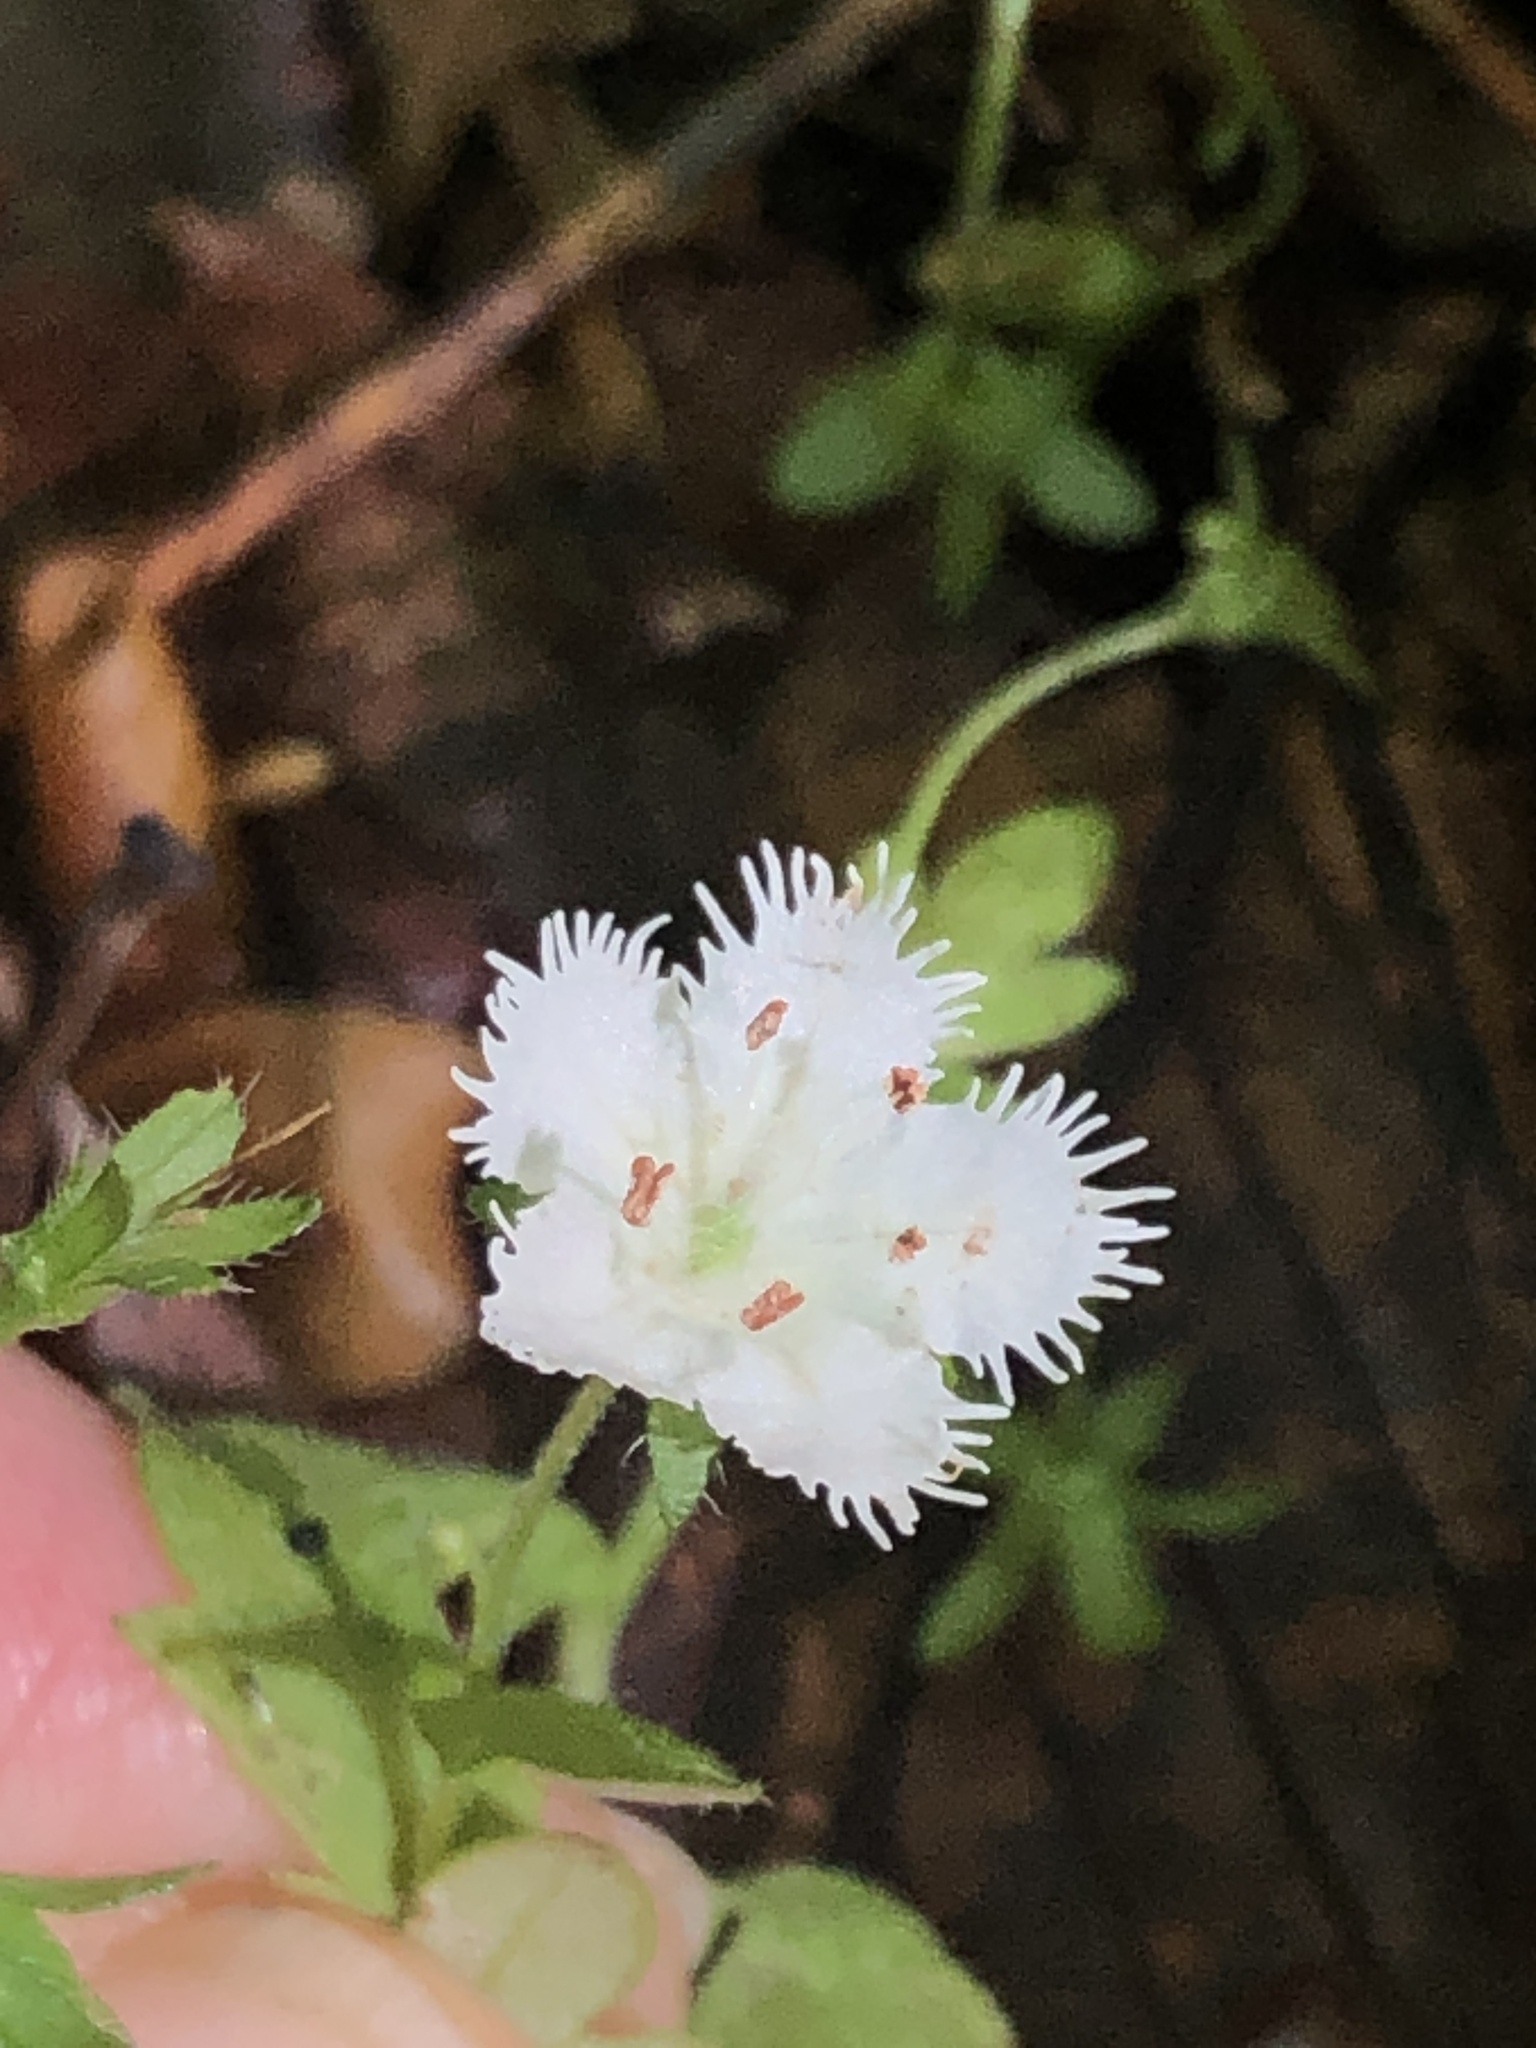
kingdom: Plantae
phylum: Tracheophyta
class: Magnoliopsida
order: Boraginales
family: Hydrophyllaceae
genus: Phacelia
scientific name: Phacelia fimbriata
